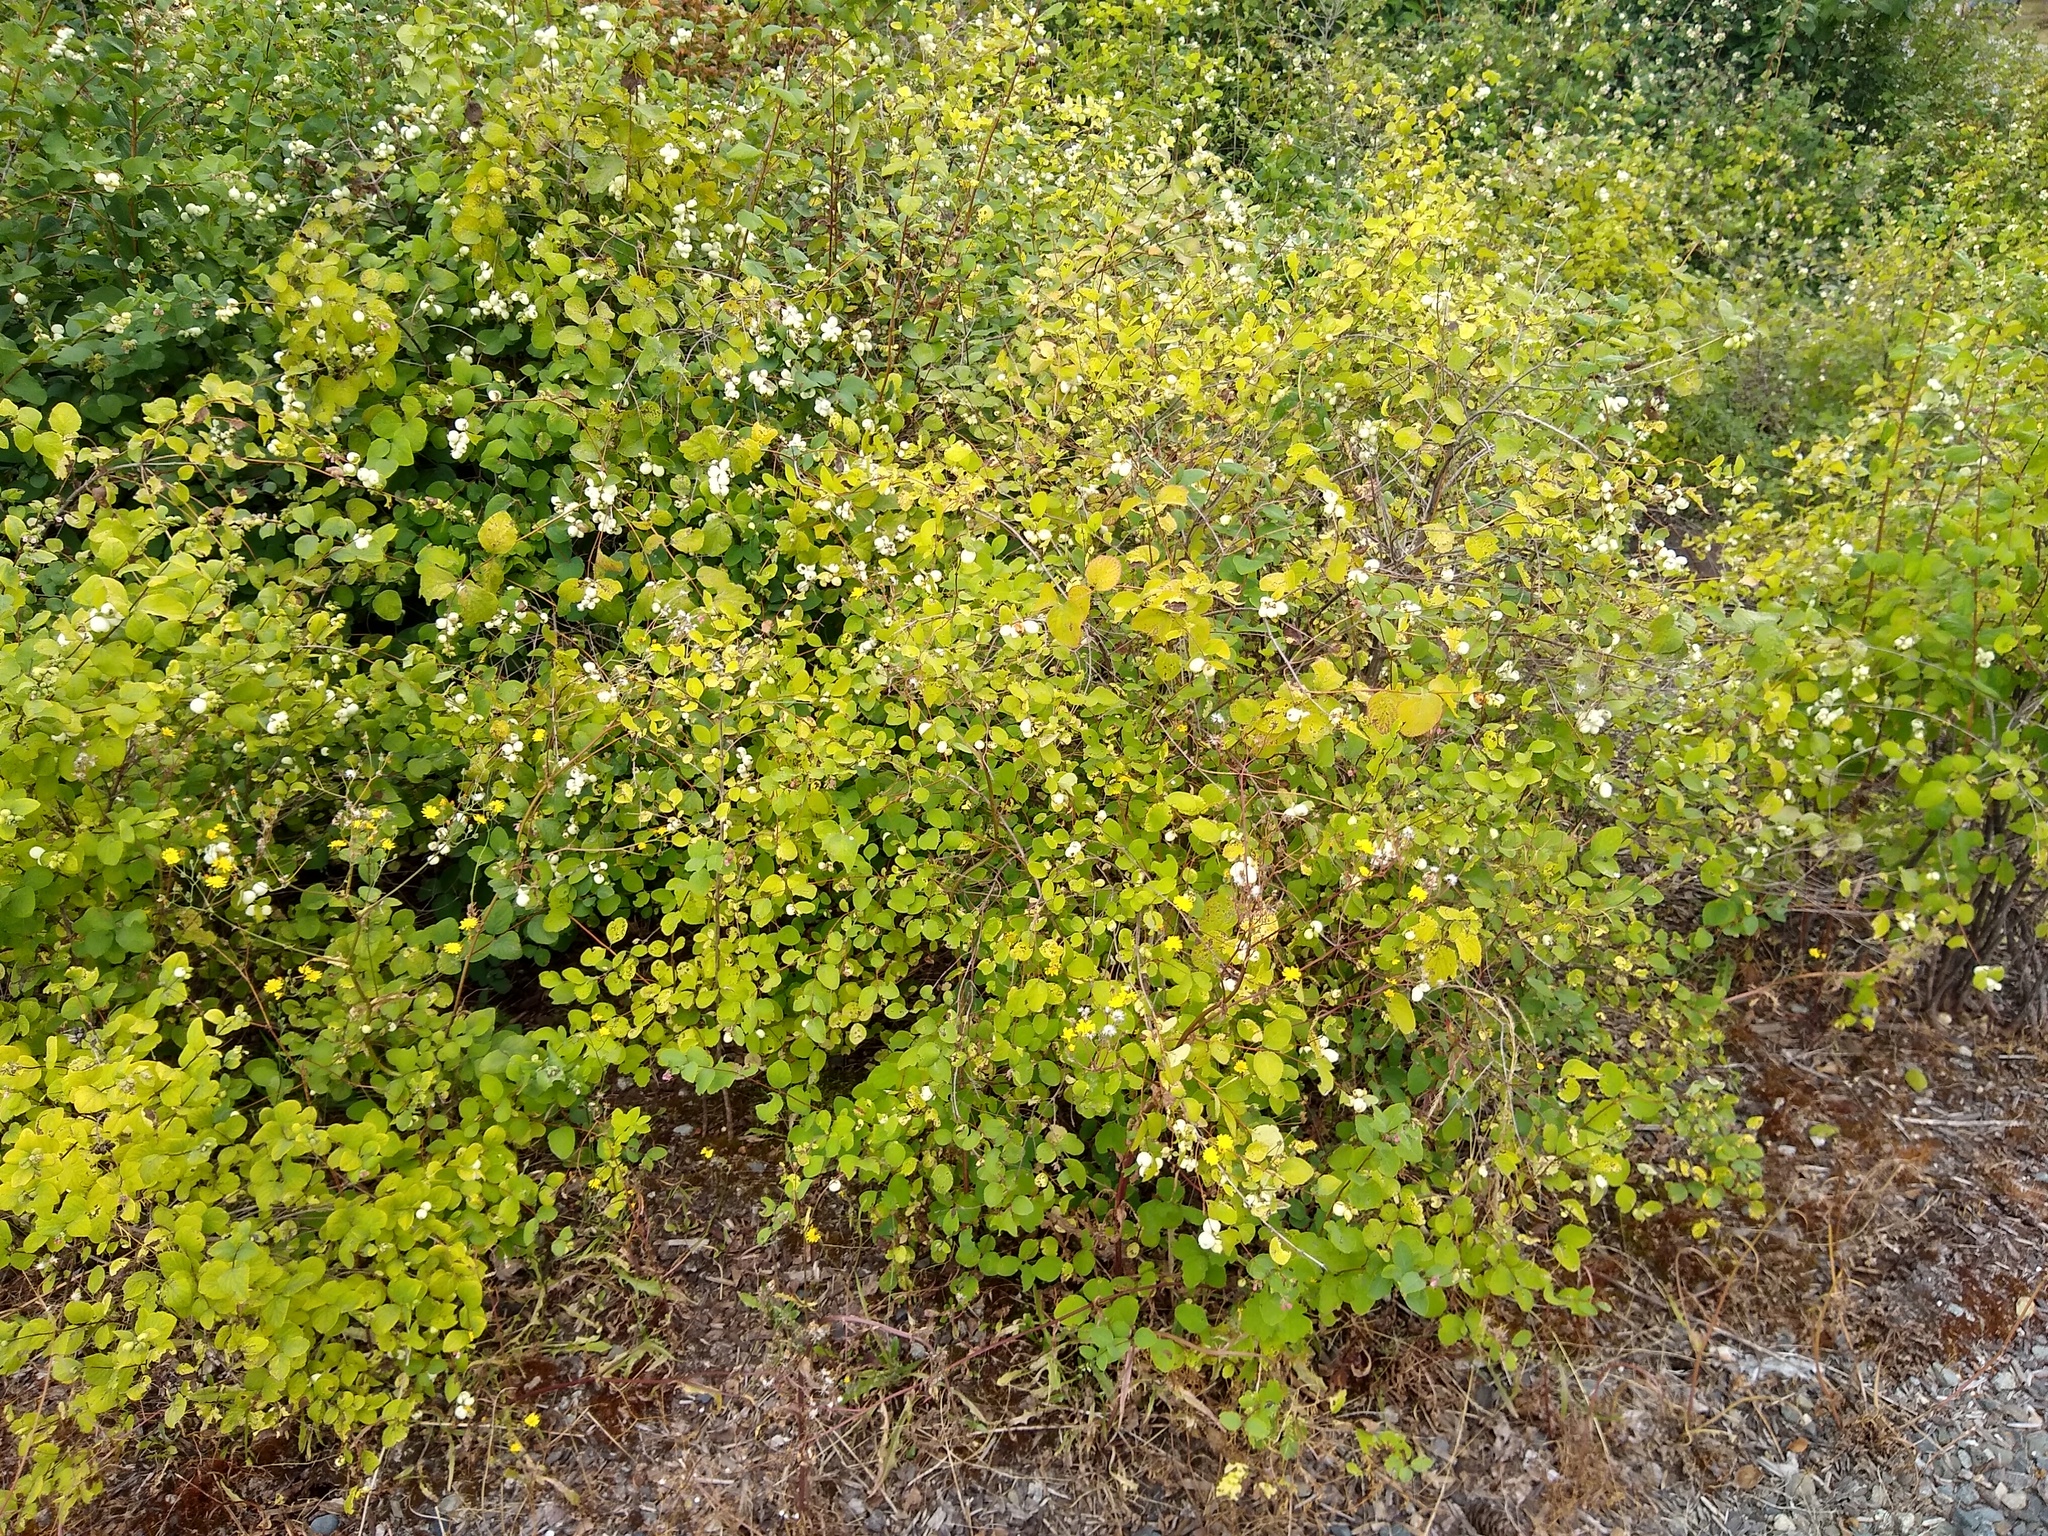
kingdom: Plantae
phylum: Tracheophyta
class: Magnoliopsida
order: Dipsacales
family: Caprifoliaceae
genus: Symphoricarpos
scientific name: Symphoricarpos albus
